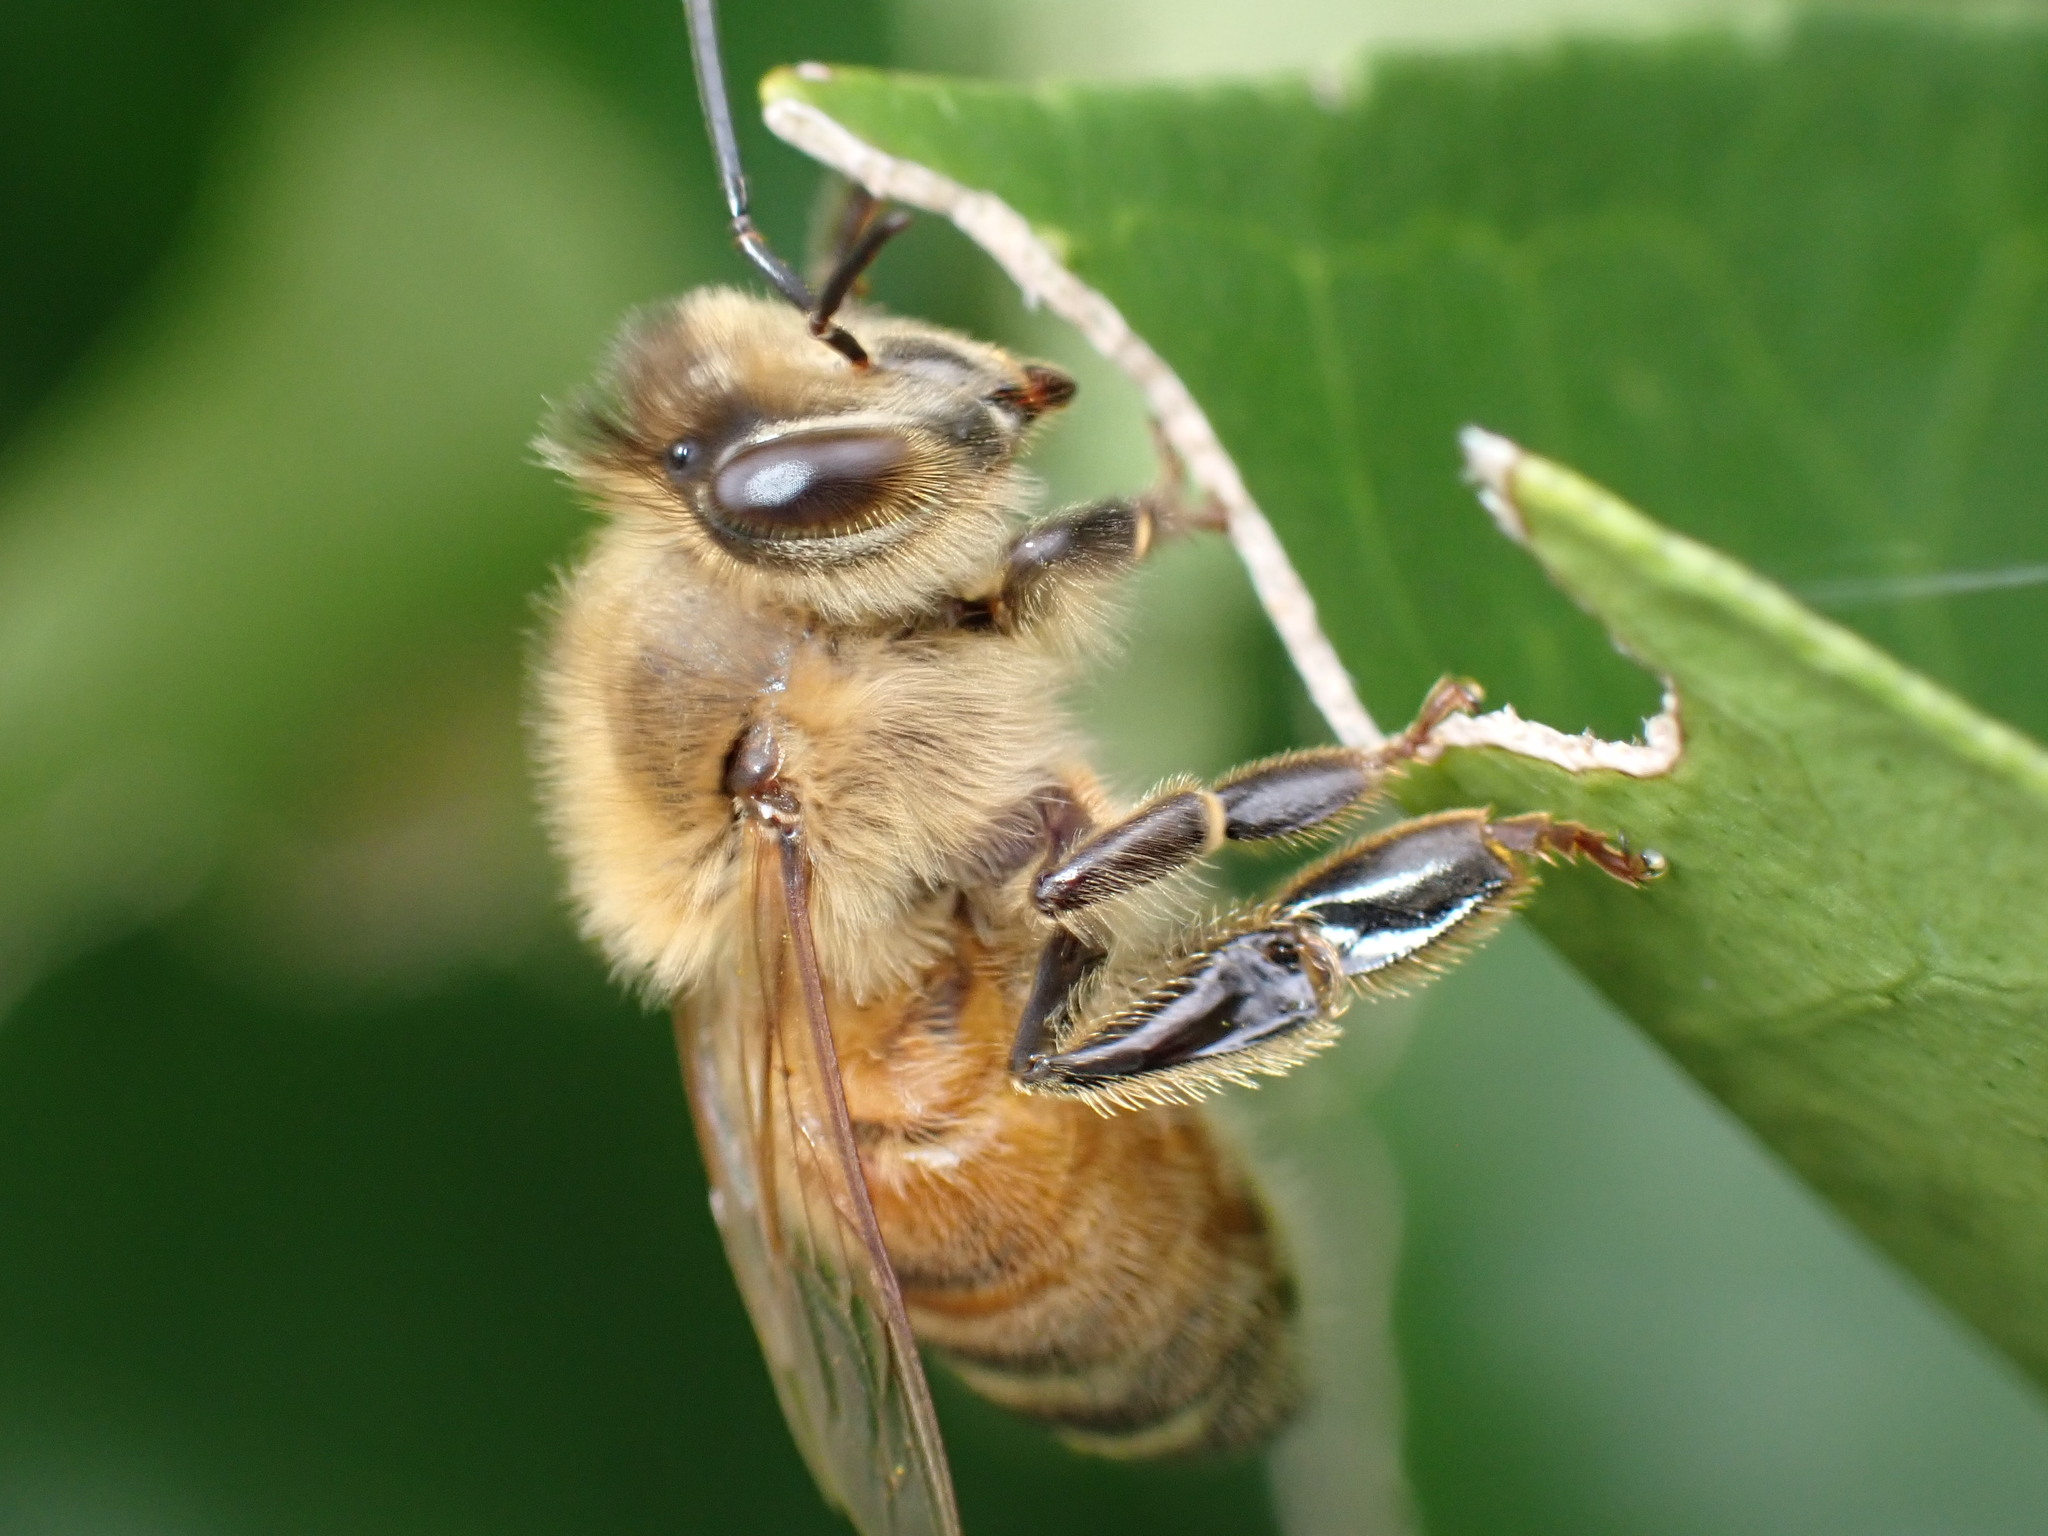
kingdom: Animalia
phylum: Arthropoda
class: Insecta
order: Hymenoptera
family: Apidae
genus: Apis
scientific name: Apis mellifera
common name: Honey bee
